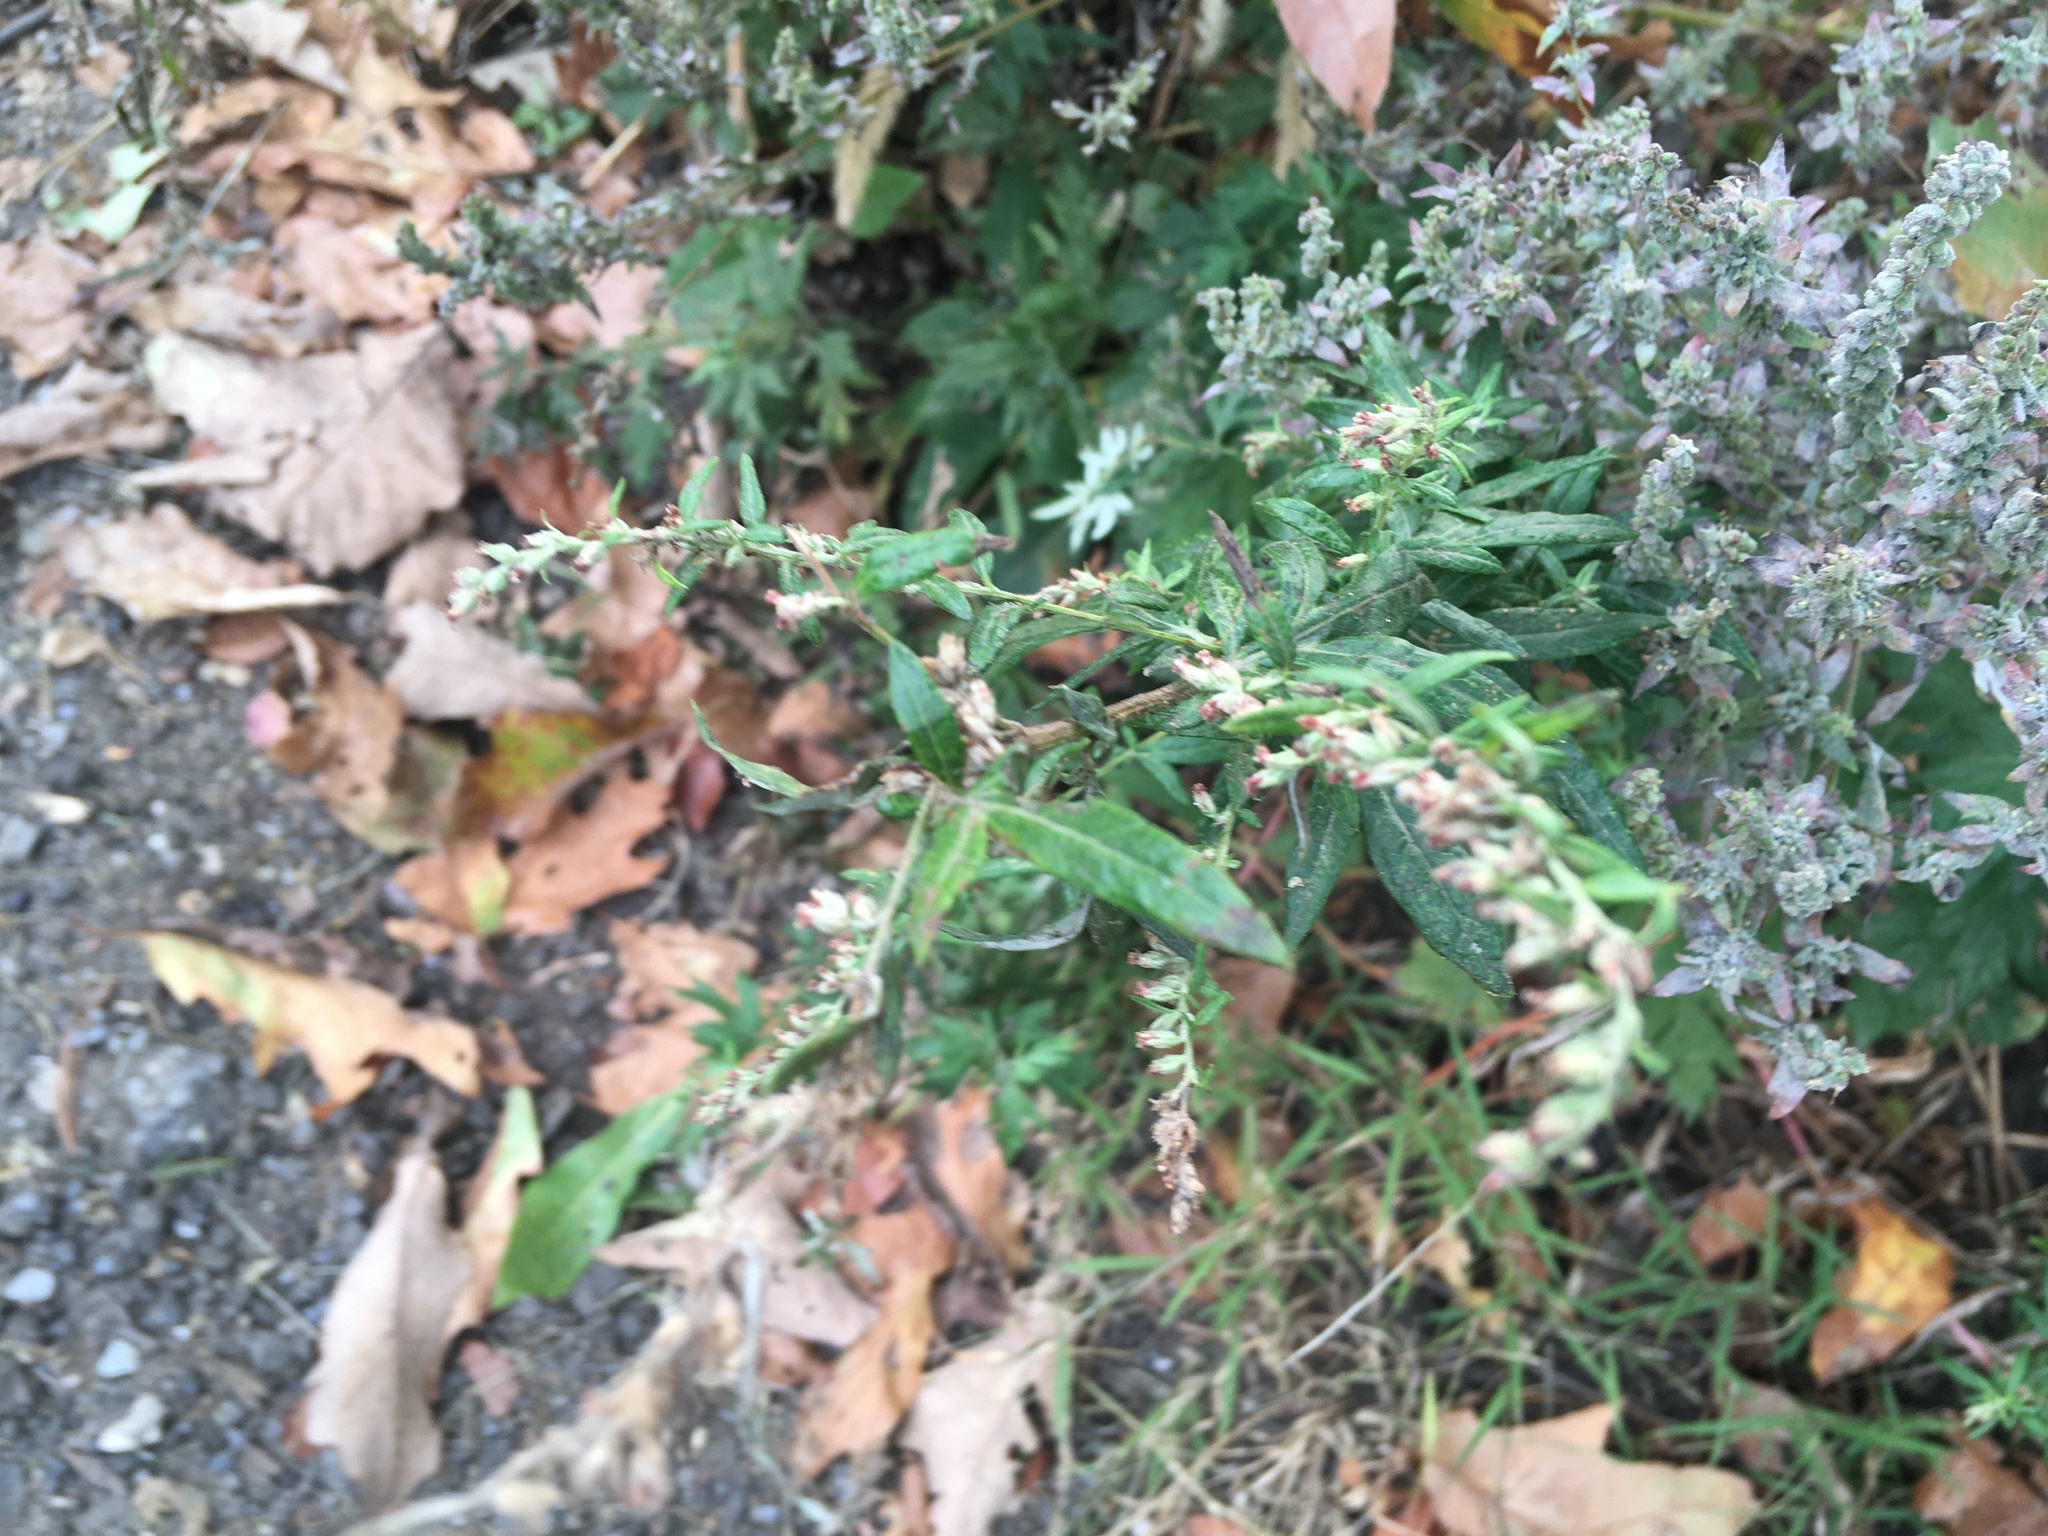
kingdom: Plantae
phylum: Tracheophyta
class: Magnoliopsida
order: Asterales
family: Asteraceae
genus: Artemisia
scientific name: Artemisia vulgaris
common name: Mugwort
